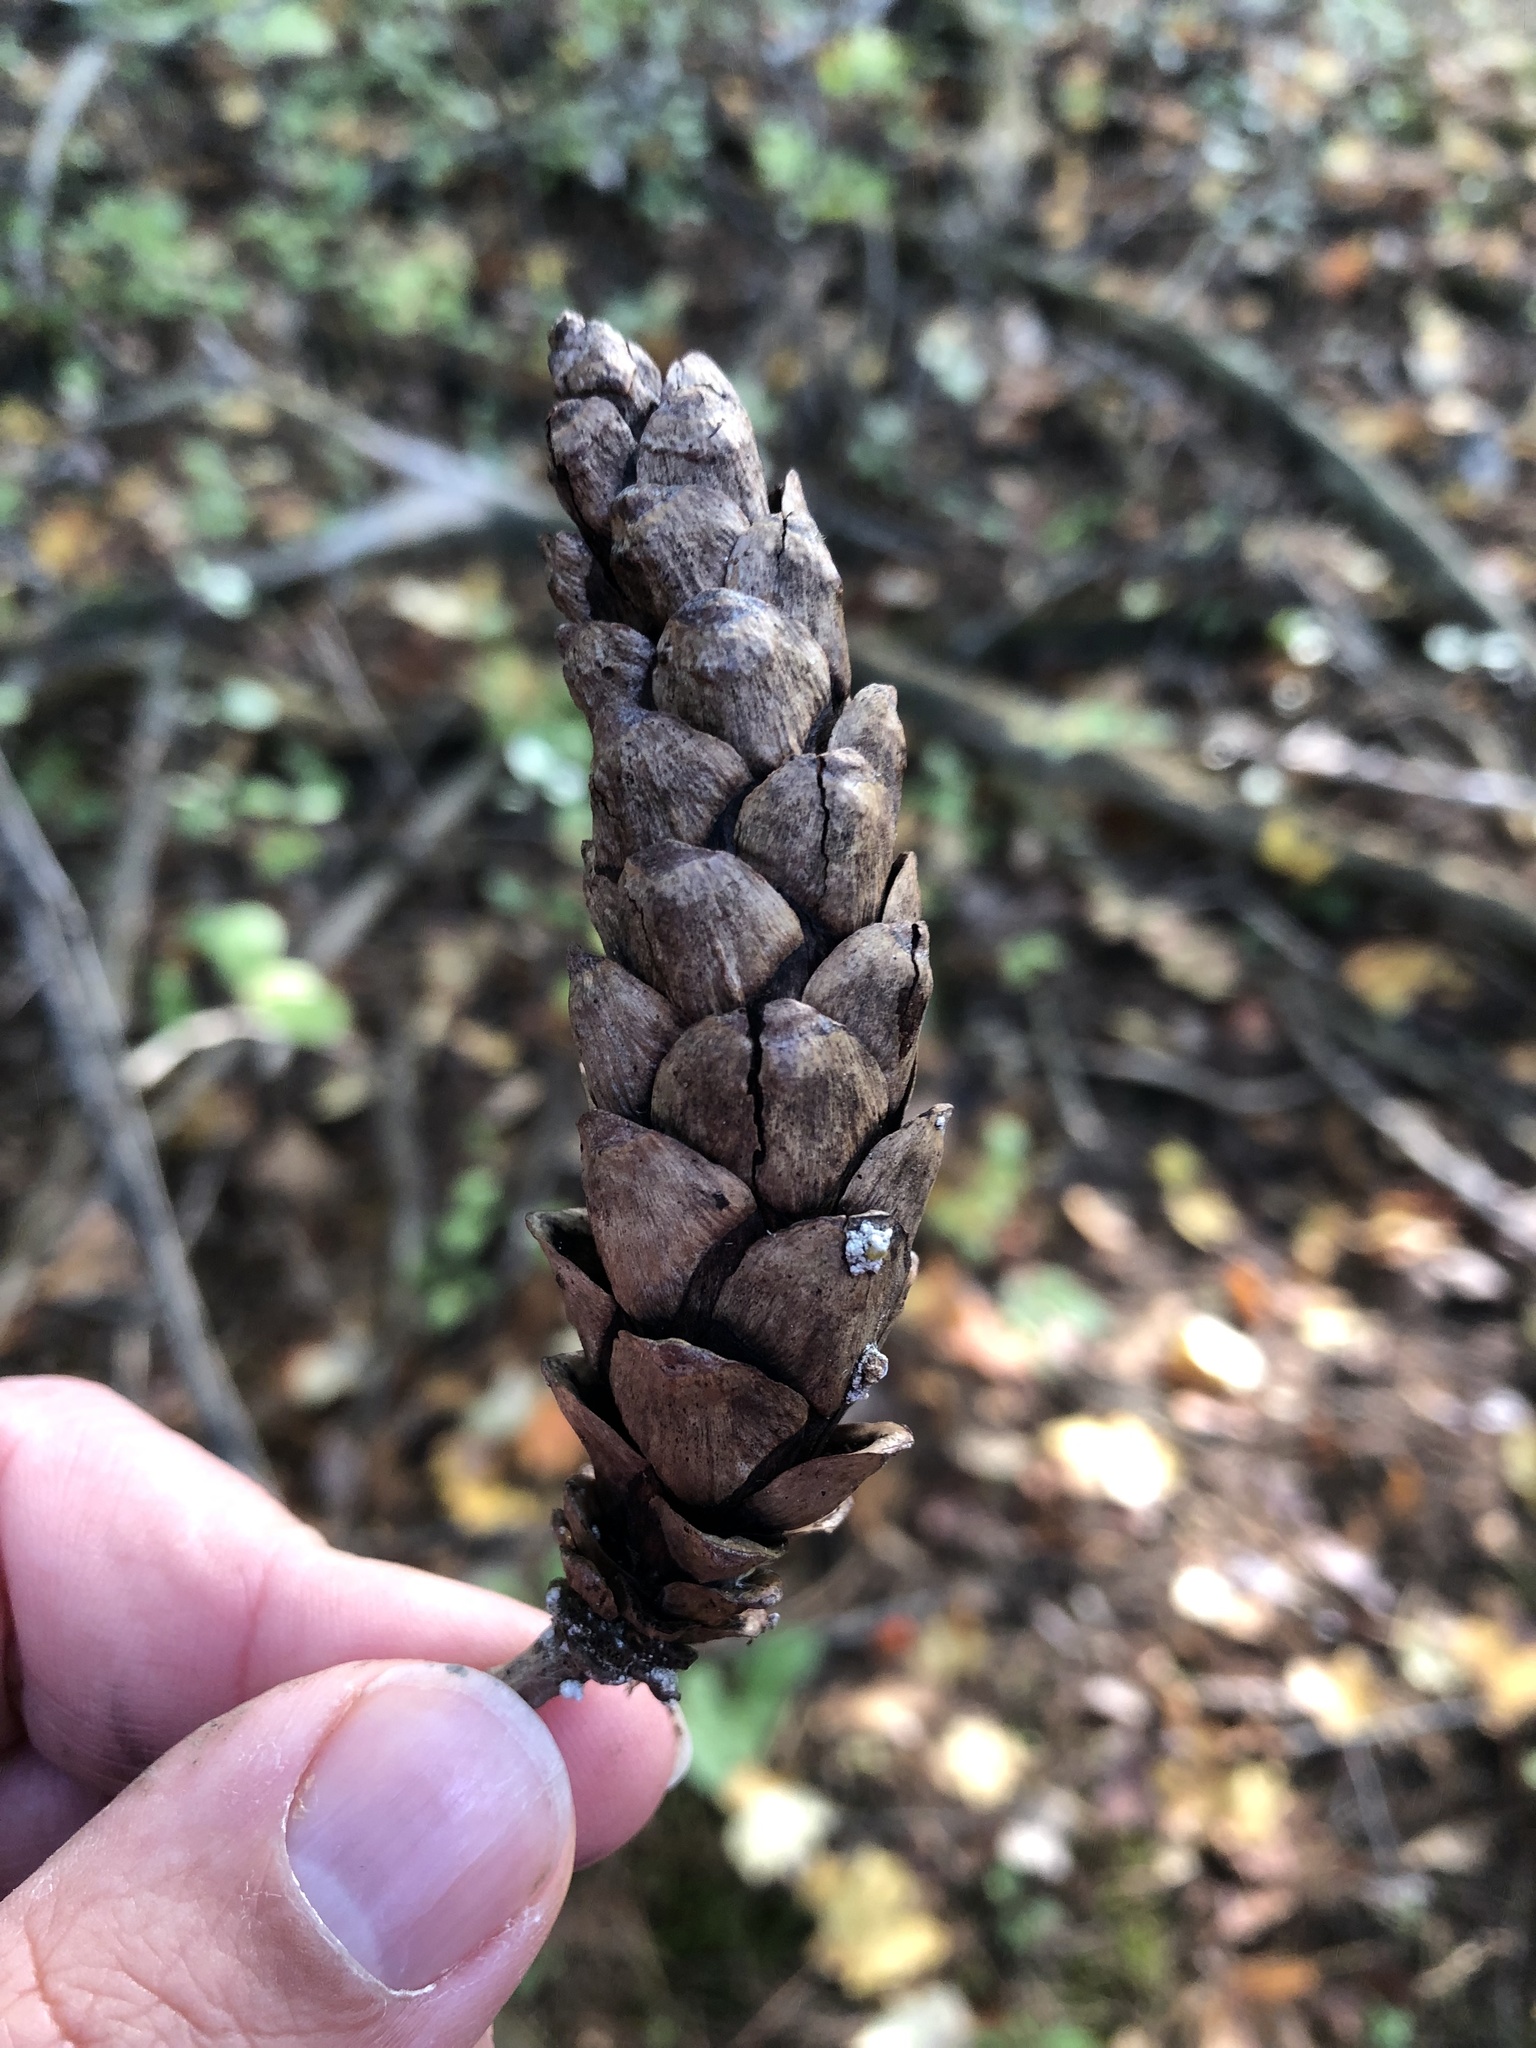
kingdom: Plantae
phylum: Tracheophyta
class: Pinopsida
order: Pinales
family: Pinaceae
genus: Pinus
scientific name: Pinus strobus
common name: Weymouth pine
